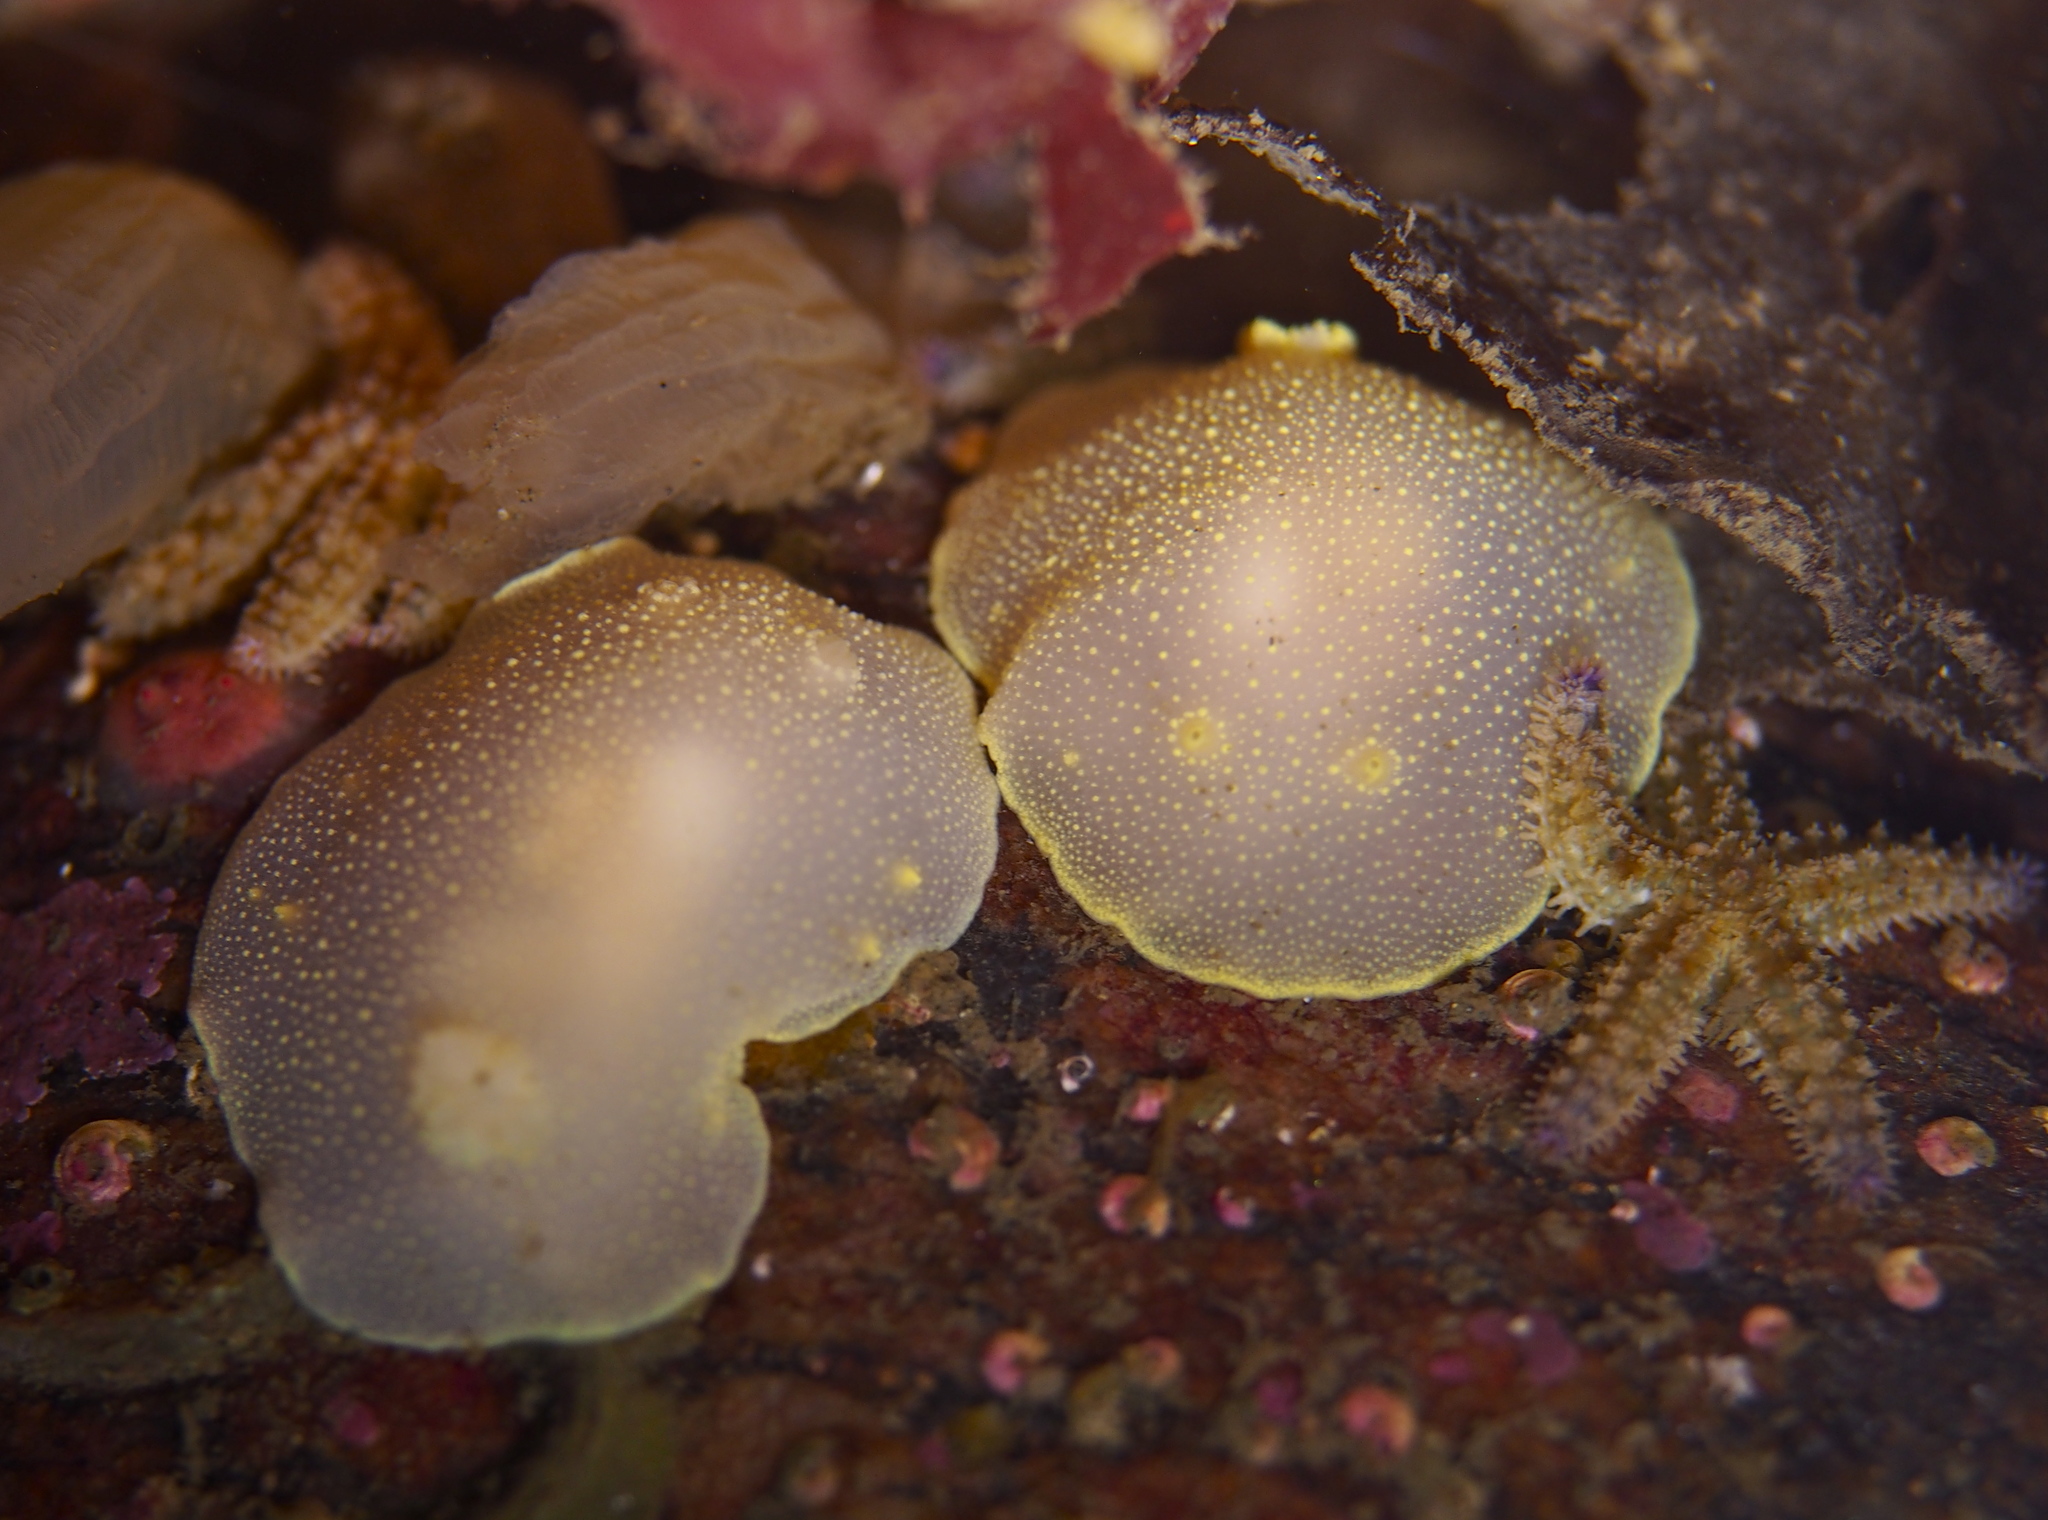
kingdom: Animalia
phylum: Mollusca
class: Gastropoda
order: Nudibranchia
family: Cadlinidae
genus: Cadlina
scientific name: Cadlina laevis
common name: White atlantic cadlina
